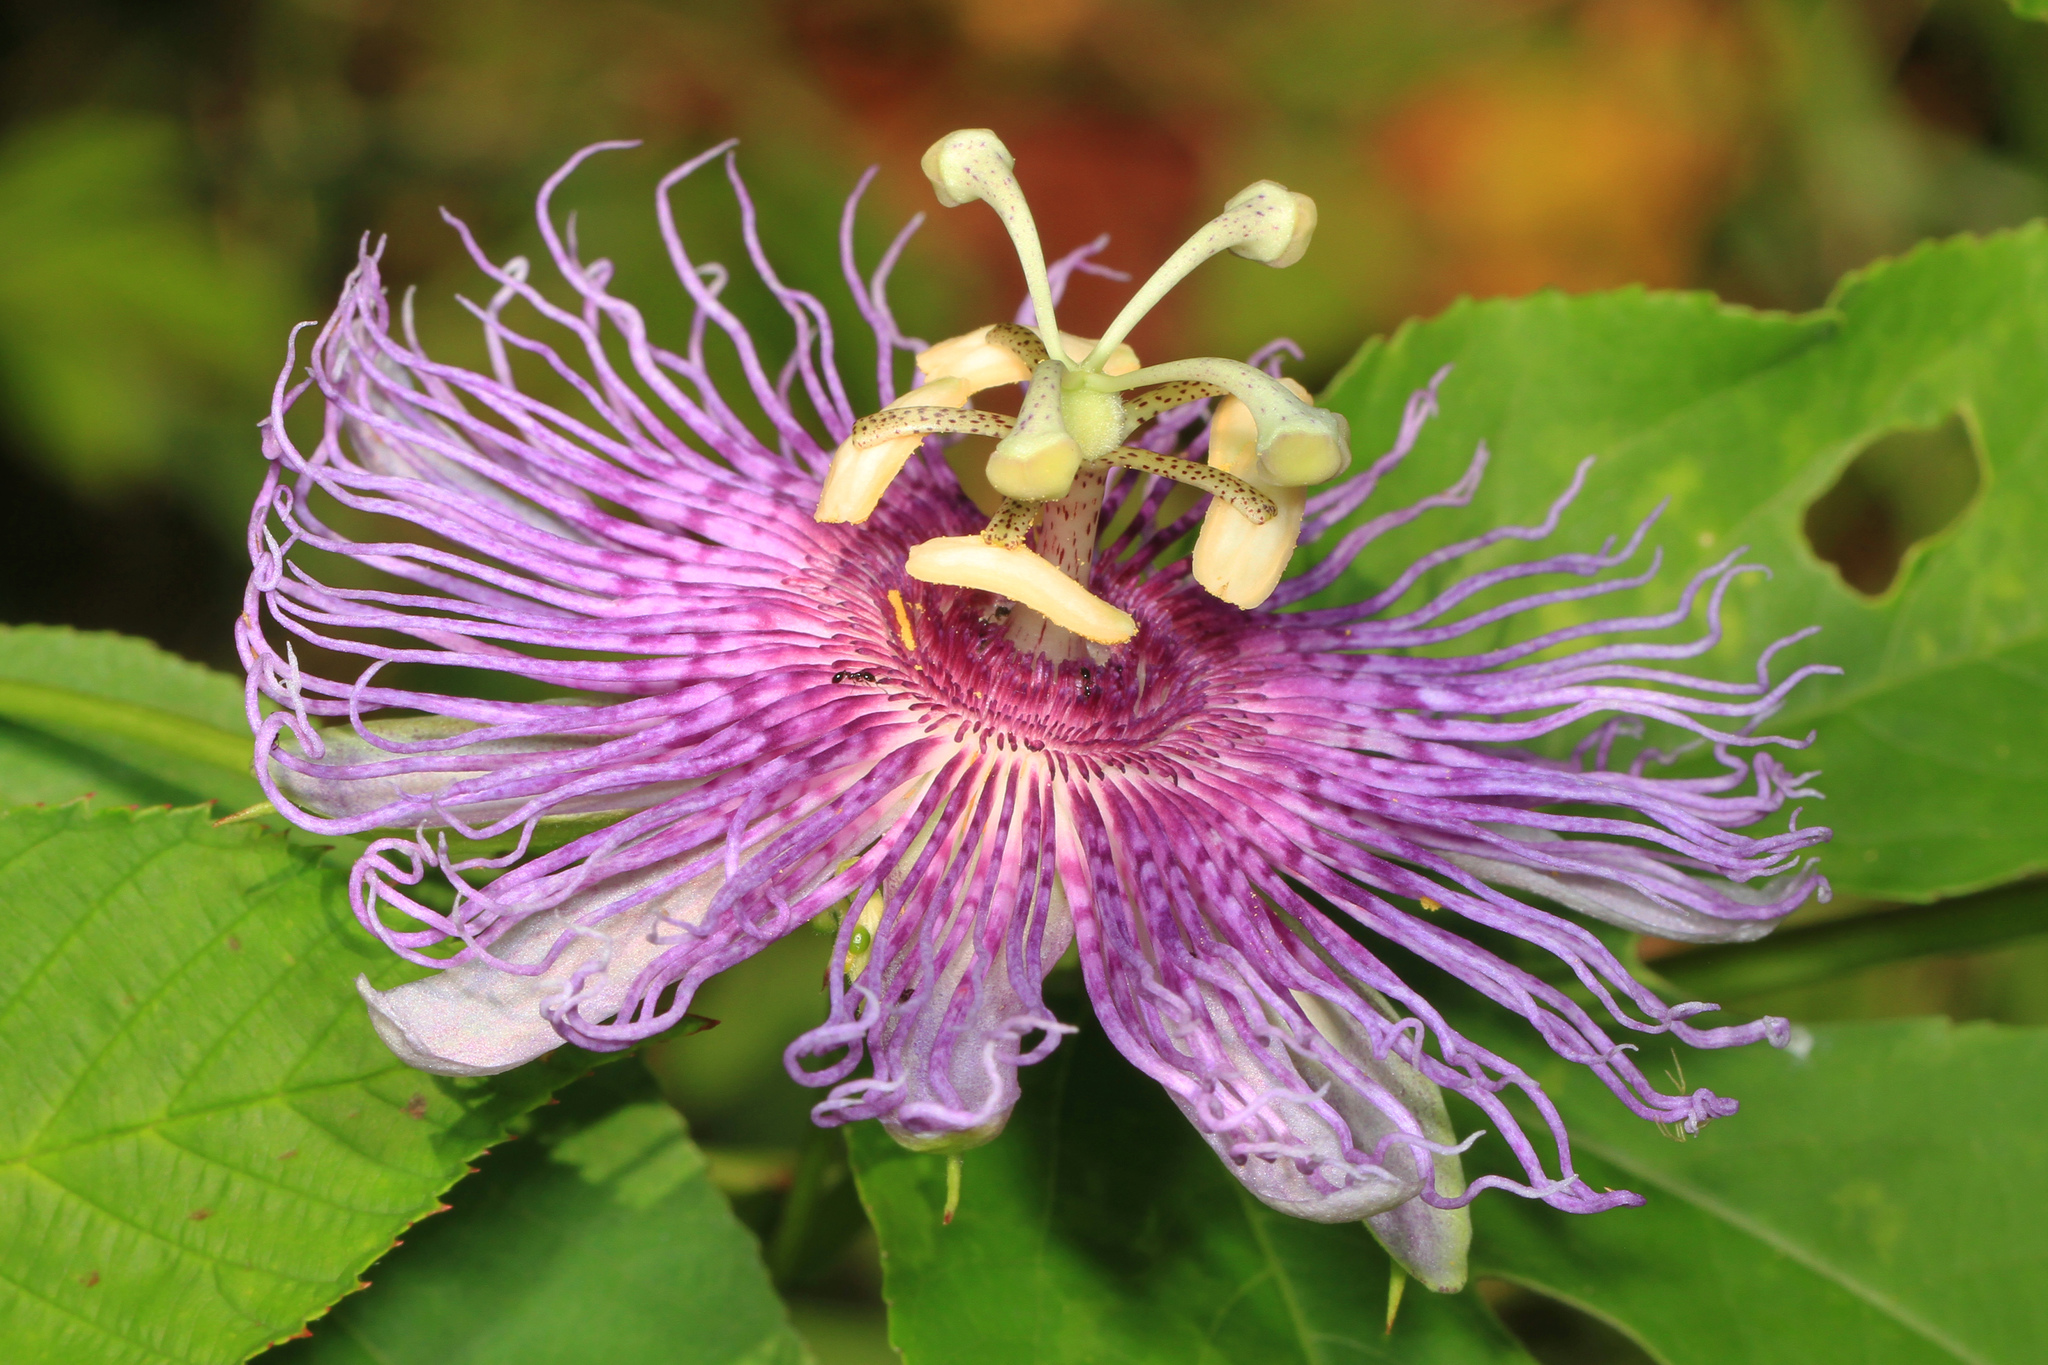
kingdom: Plantae
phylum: Tracheophyta
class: Magnoliopsida
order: Malpighiales
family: Passifloraceae
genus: Passiflora
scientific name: Passiflora incarnata
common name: Apricot-vine
